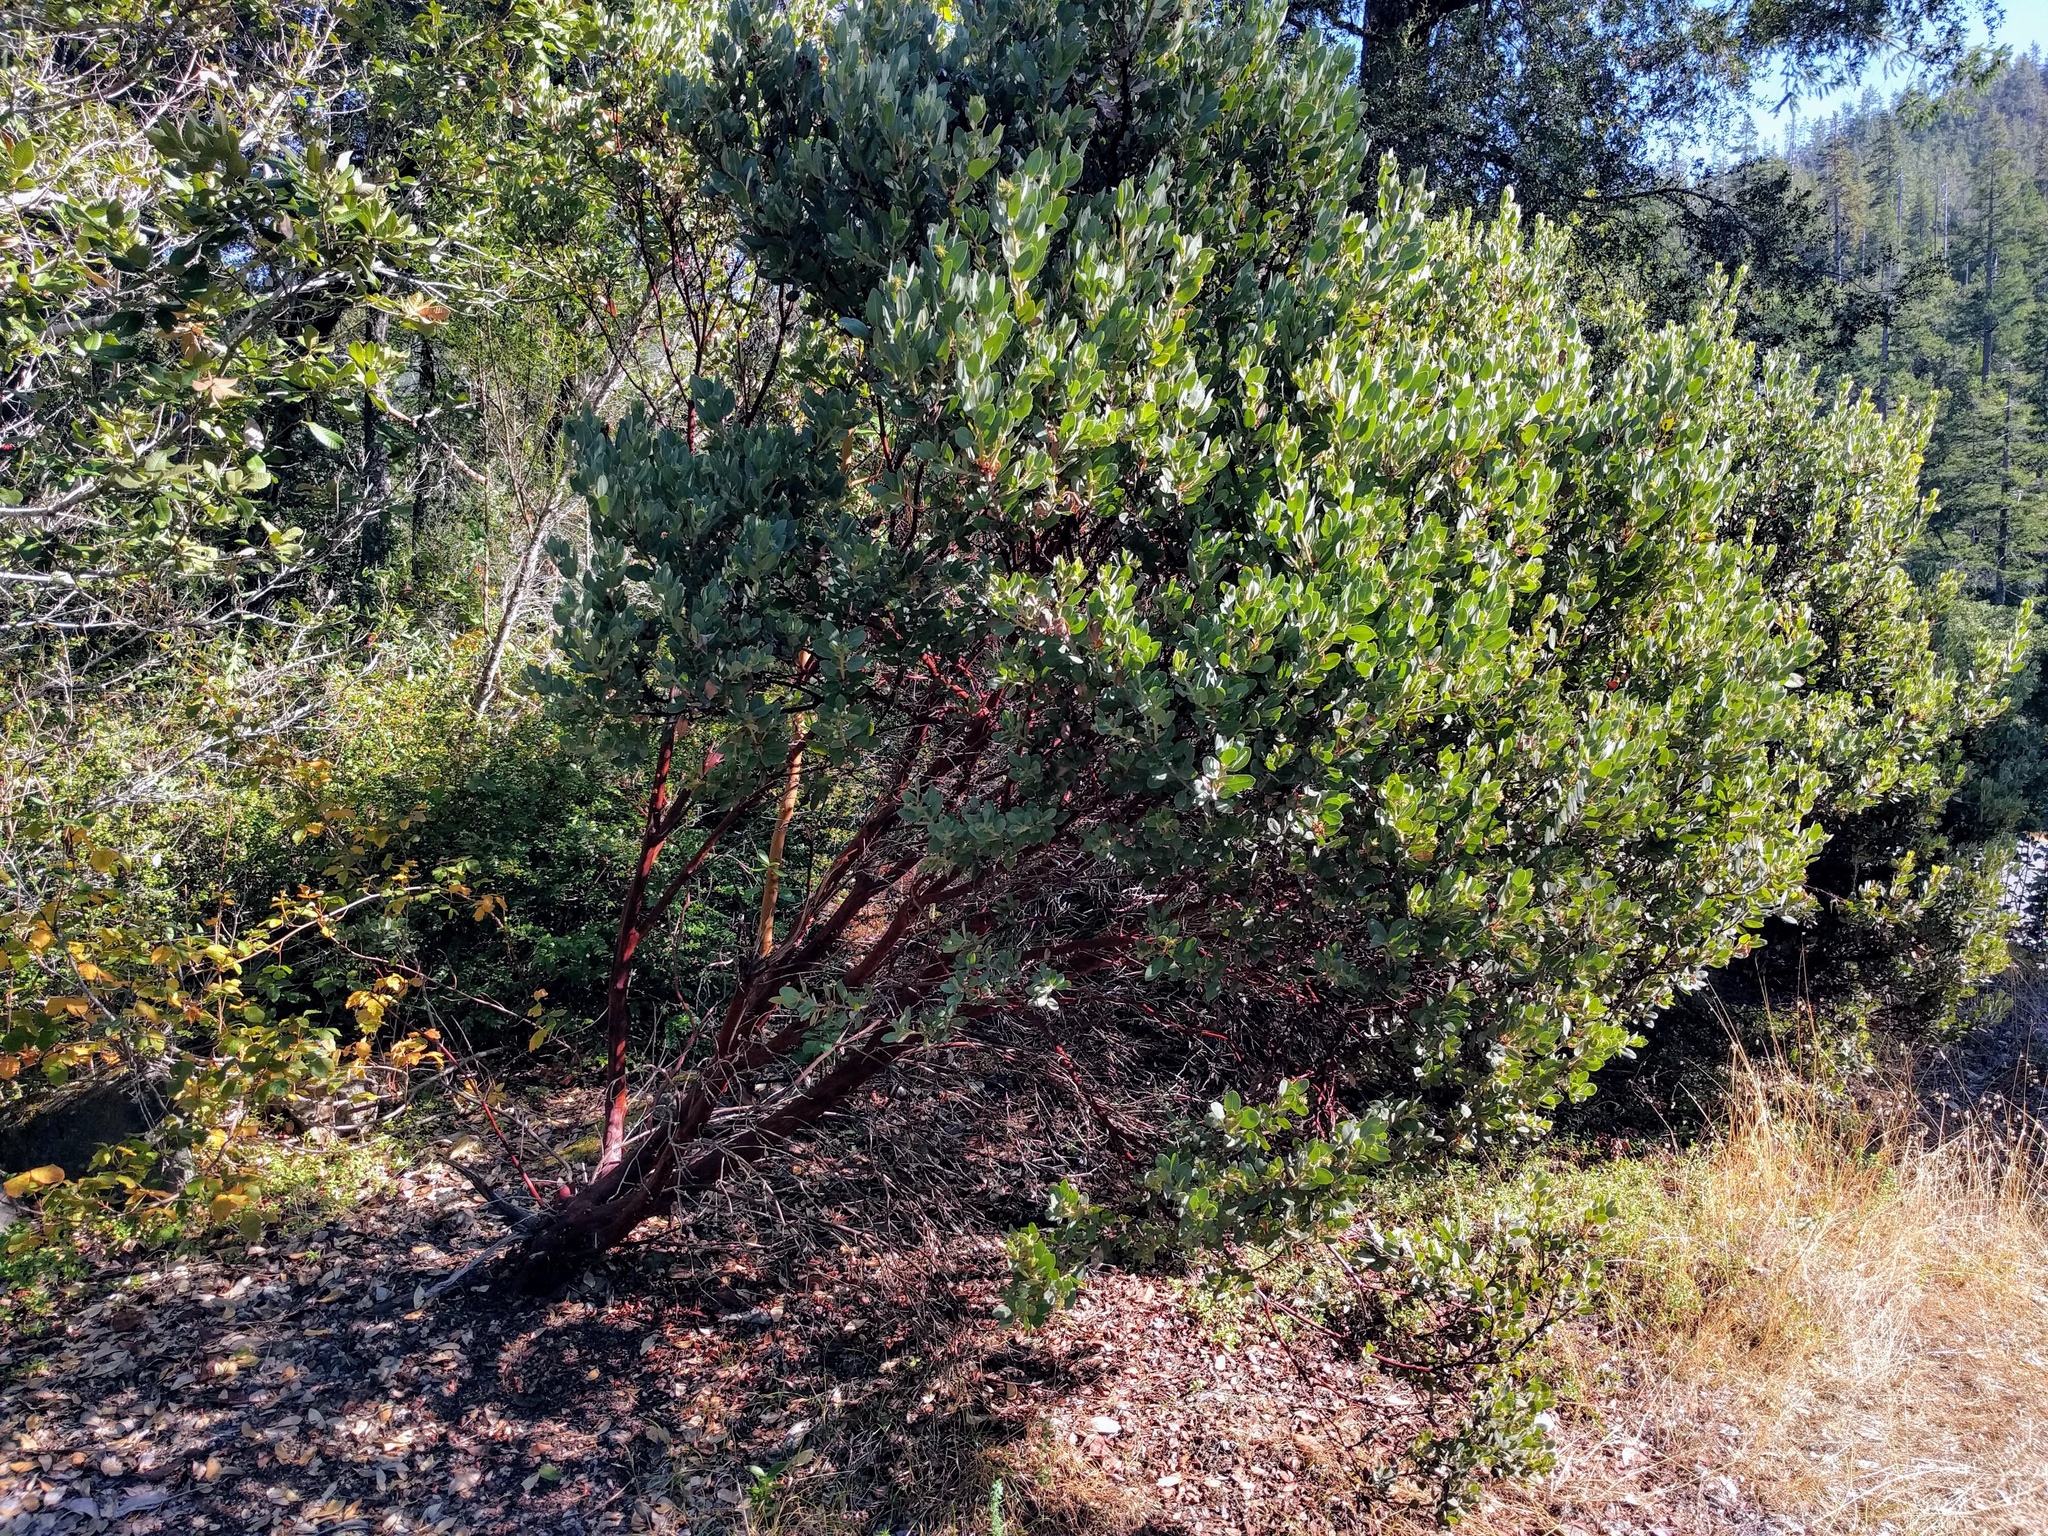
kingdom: Plantae
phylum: Tracheophyta
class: Magnoliopsida
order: Ericales
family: Ericaceae
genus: Arctostaphylos
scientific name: Arctostaphylos nortensis
